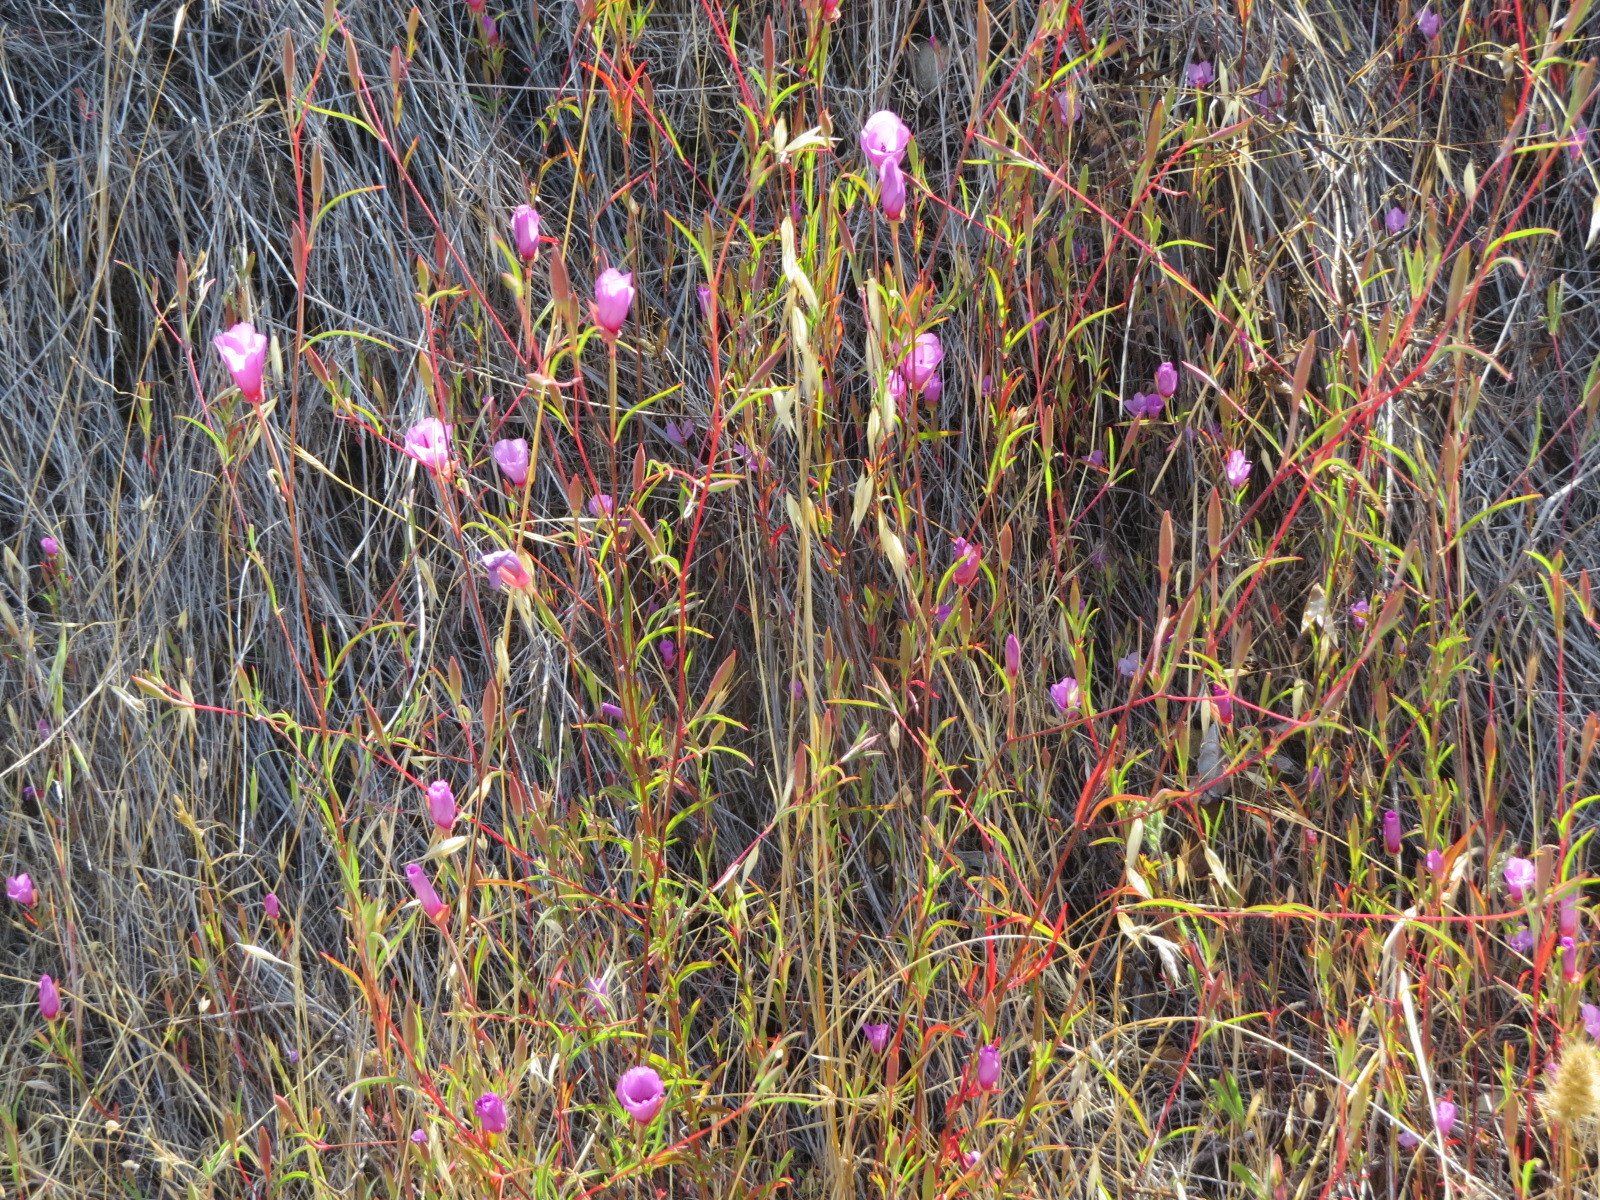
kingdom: Plantae
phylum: Tracheophyta
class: Magnoliopsida
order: Myrtales
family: Onagraceae
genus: Clarkia
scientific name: Clarkia rubicunda
